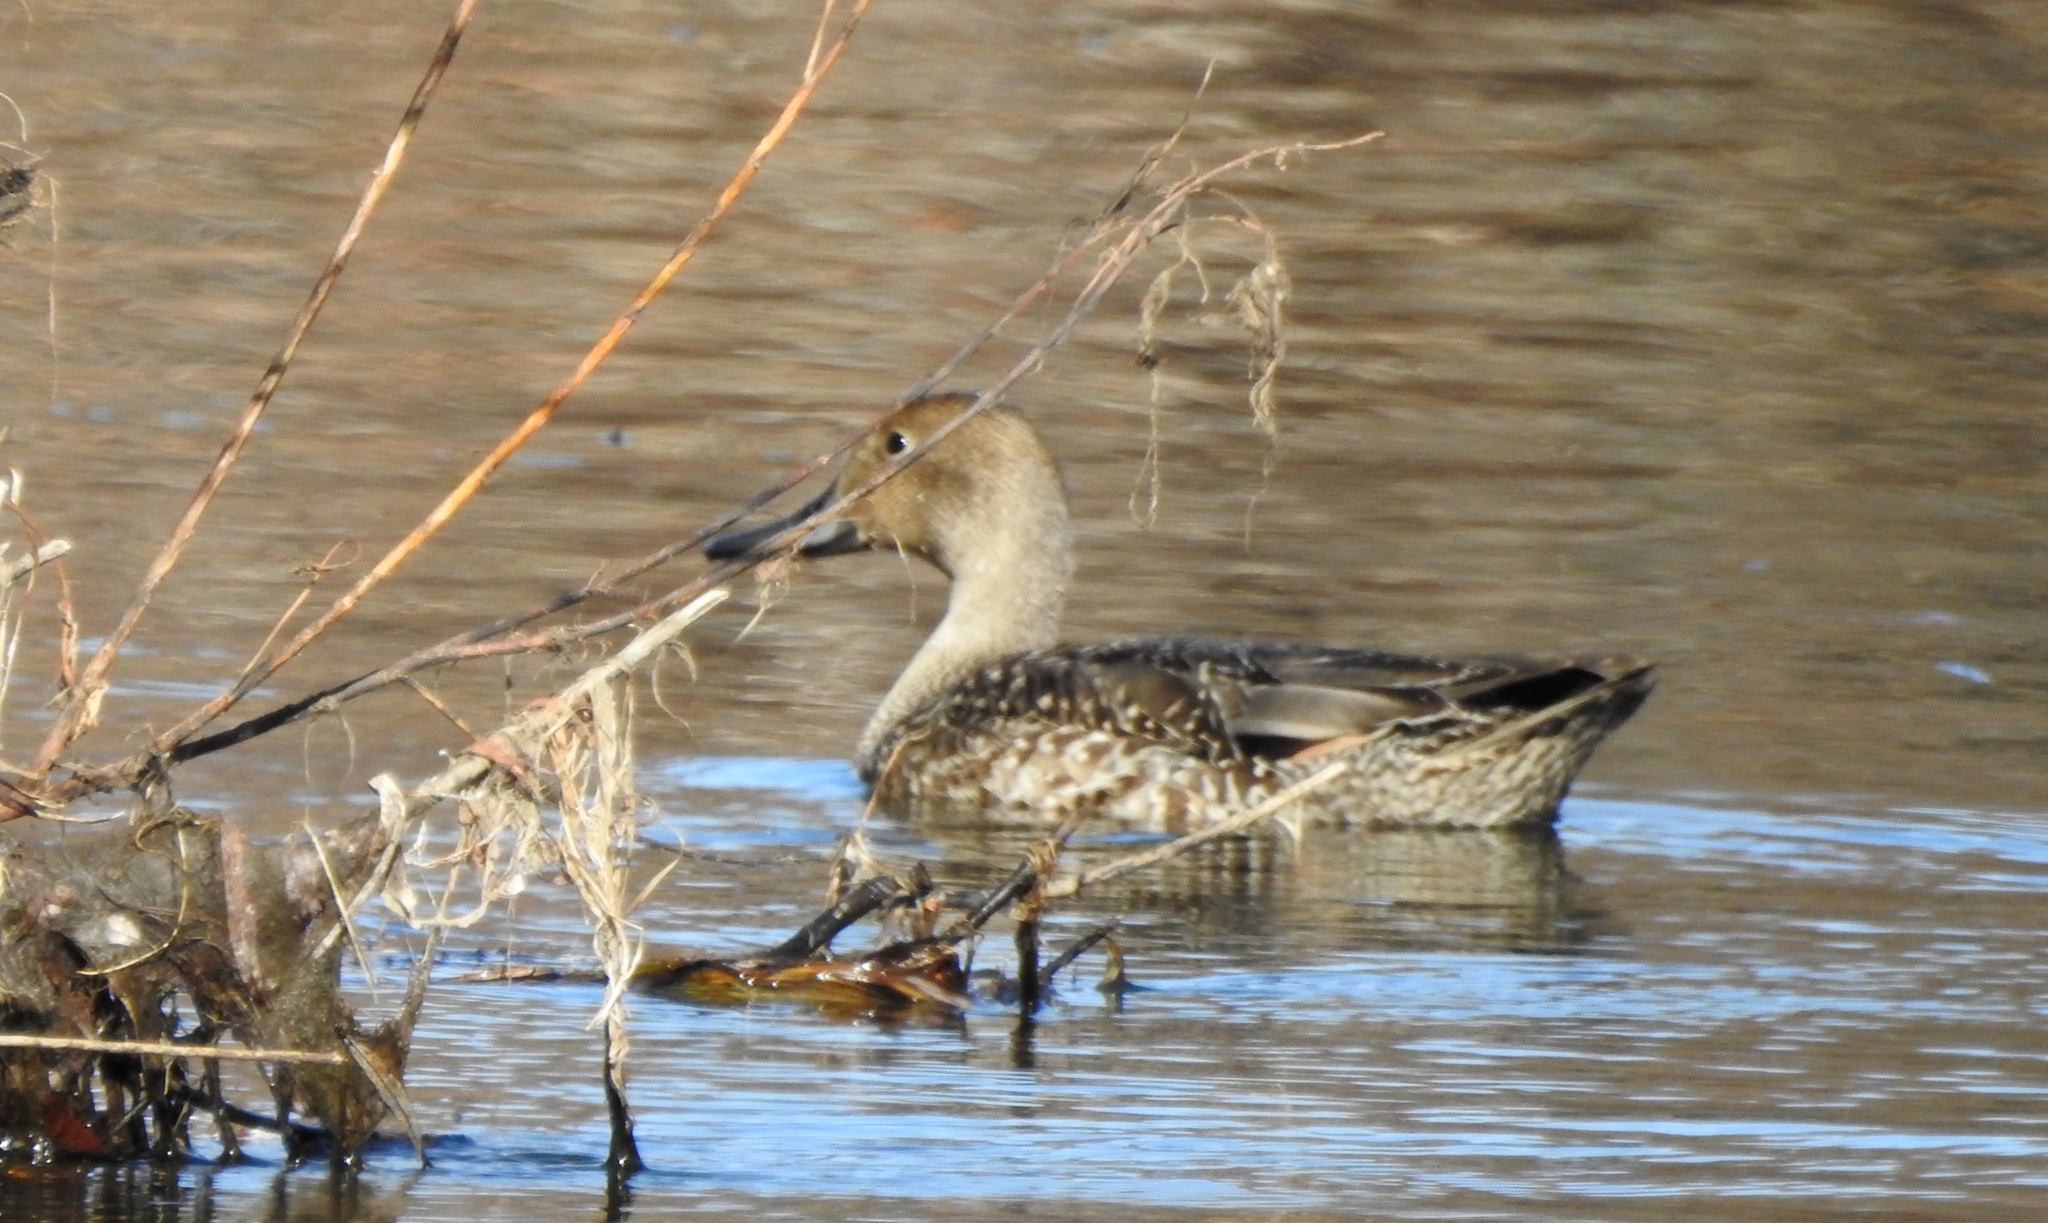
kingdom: Animalia
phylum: Chordata
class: Aves
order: Anseriformes
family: Anatidae
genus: Anas
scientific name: Anas acuta
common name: Northern pintail
